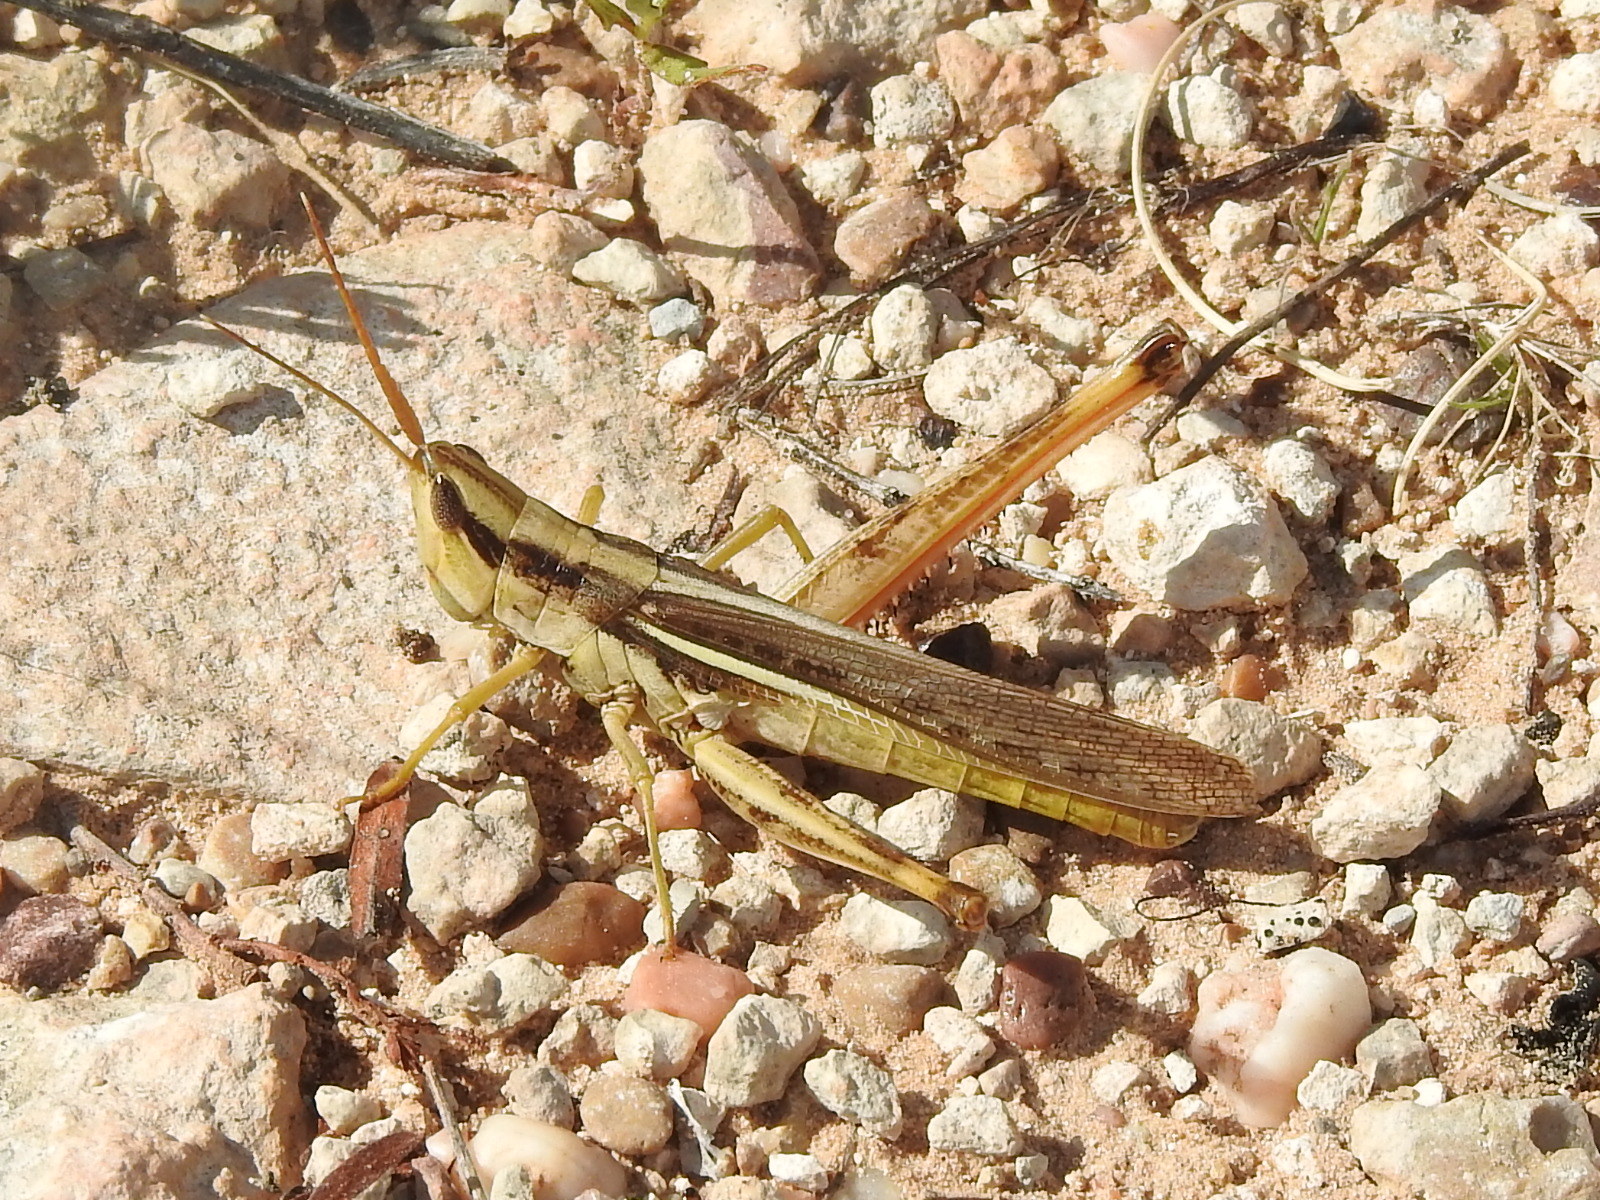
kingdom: Animalia
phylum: Arthropoda
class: Insecta
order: Orthoptera
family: Acrididae
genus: Mermiria
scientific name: Mermiria bivittata
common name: Two-striped mermiria grasshopper
